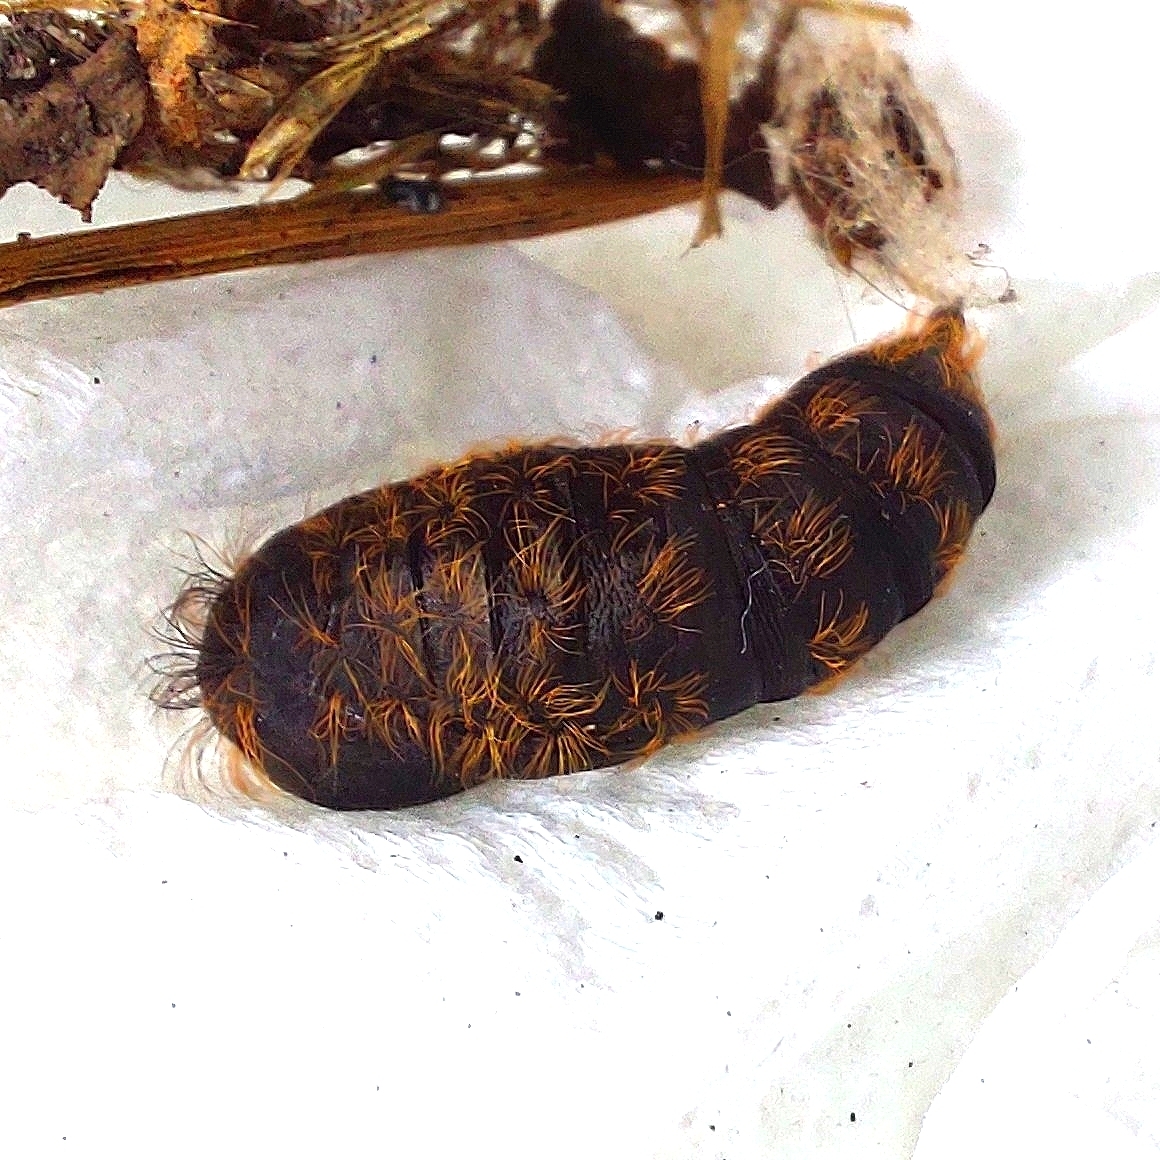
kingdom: Animalia
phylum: Arthropoda
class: Insecta
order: Lepidoptera
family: Erebidae
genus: Lymantria
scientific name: Lymantria dispar
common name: Gypsy moth
